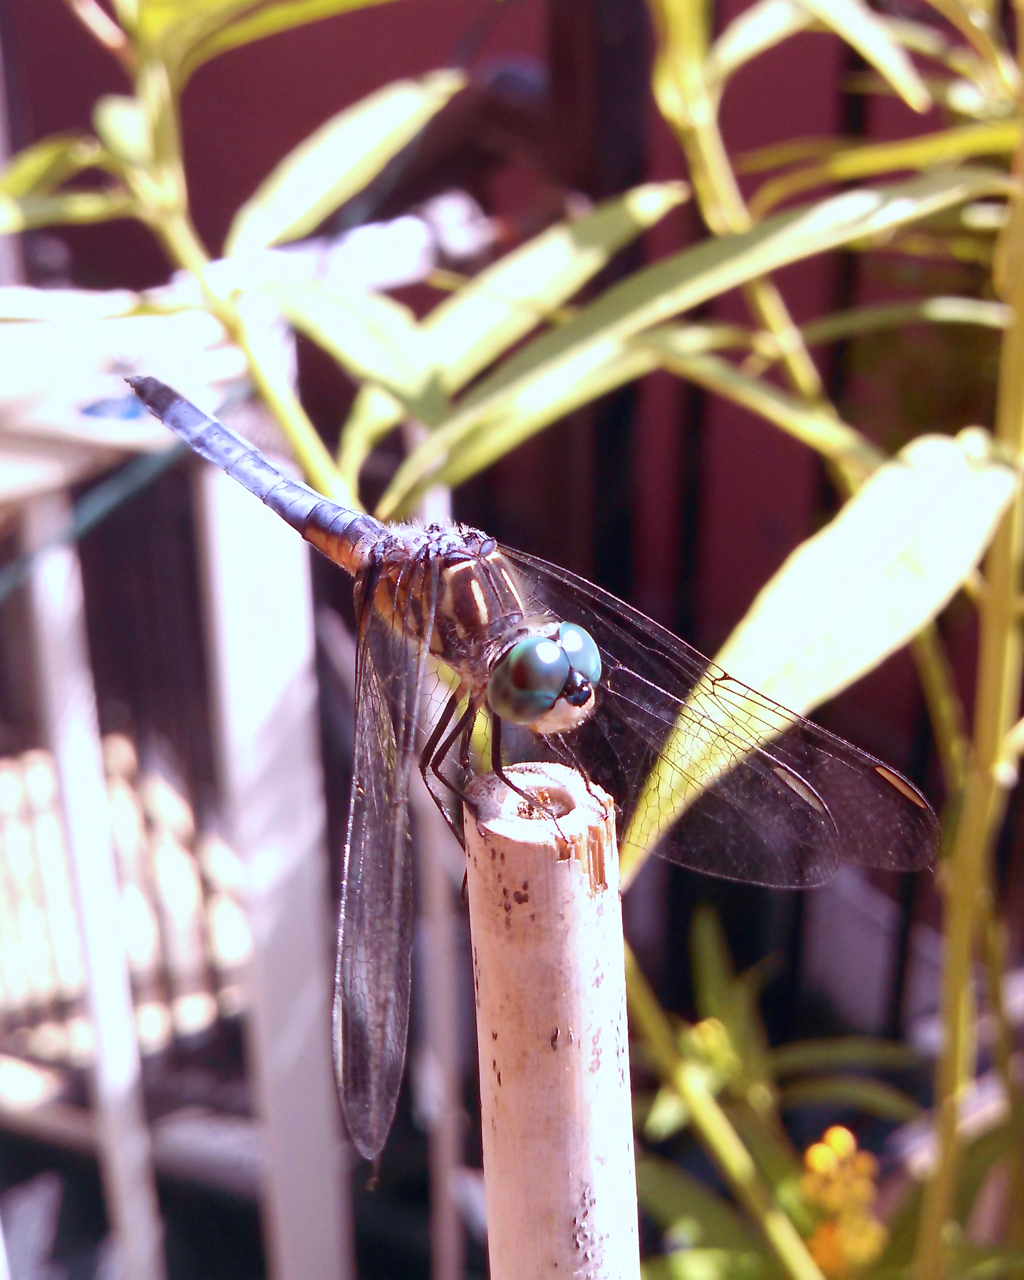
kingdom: Animalia
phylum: Arthropoda
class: Insecta
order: Odonata
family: Libellulidae
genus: Pachydiplax
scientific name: Pachydiplax longipennis
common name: Blue dasher
